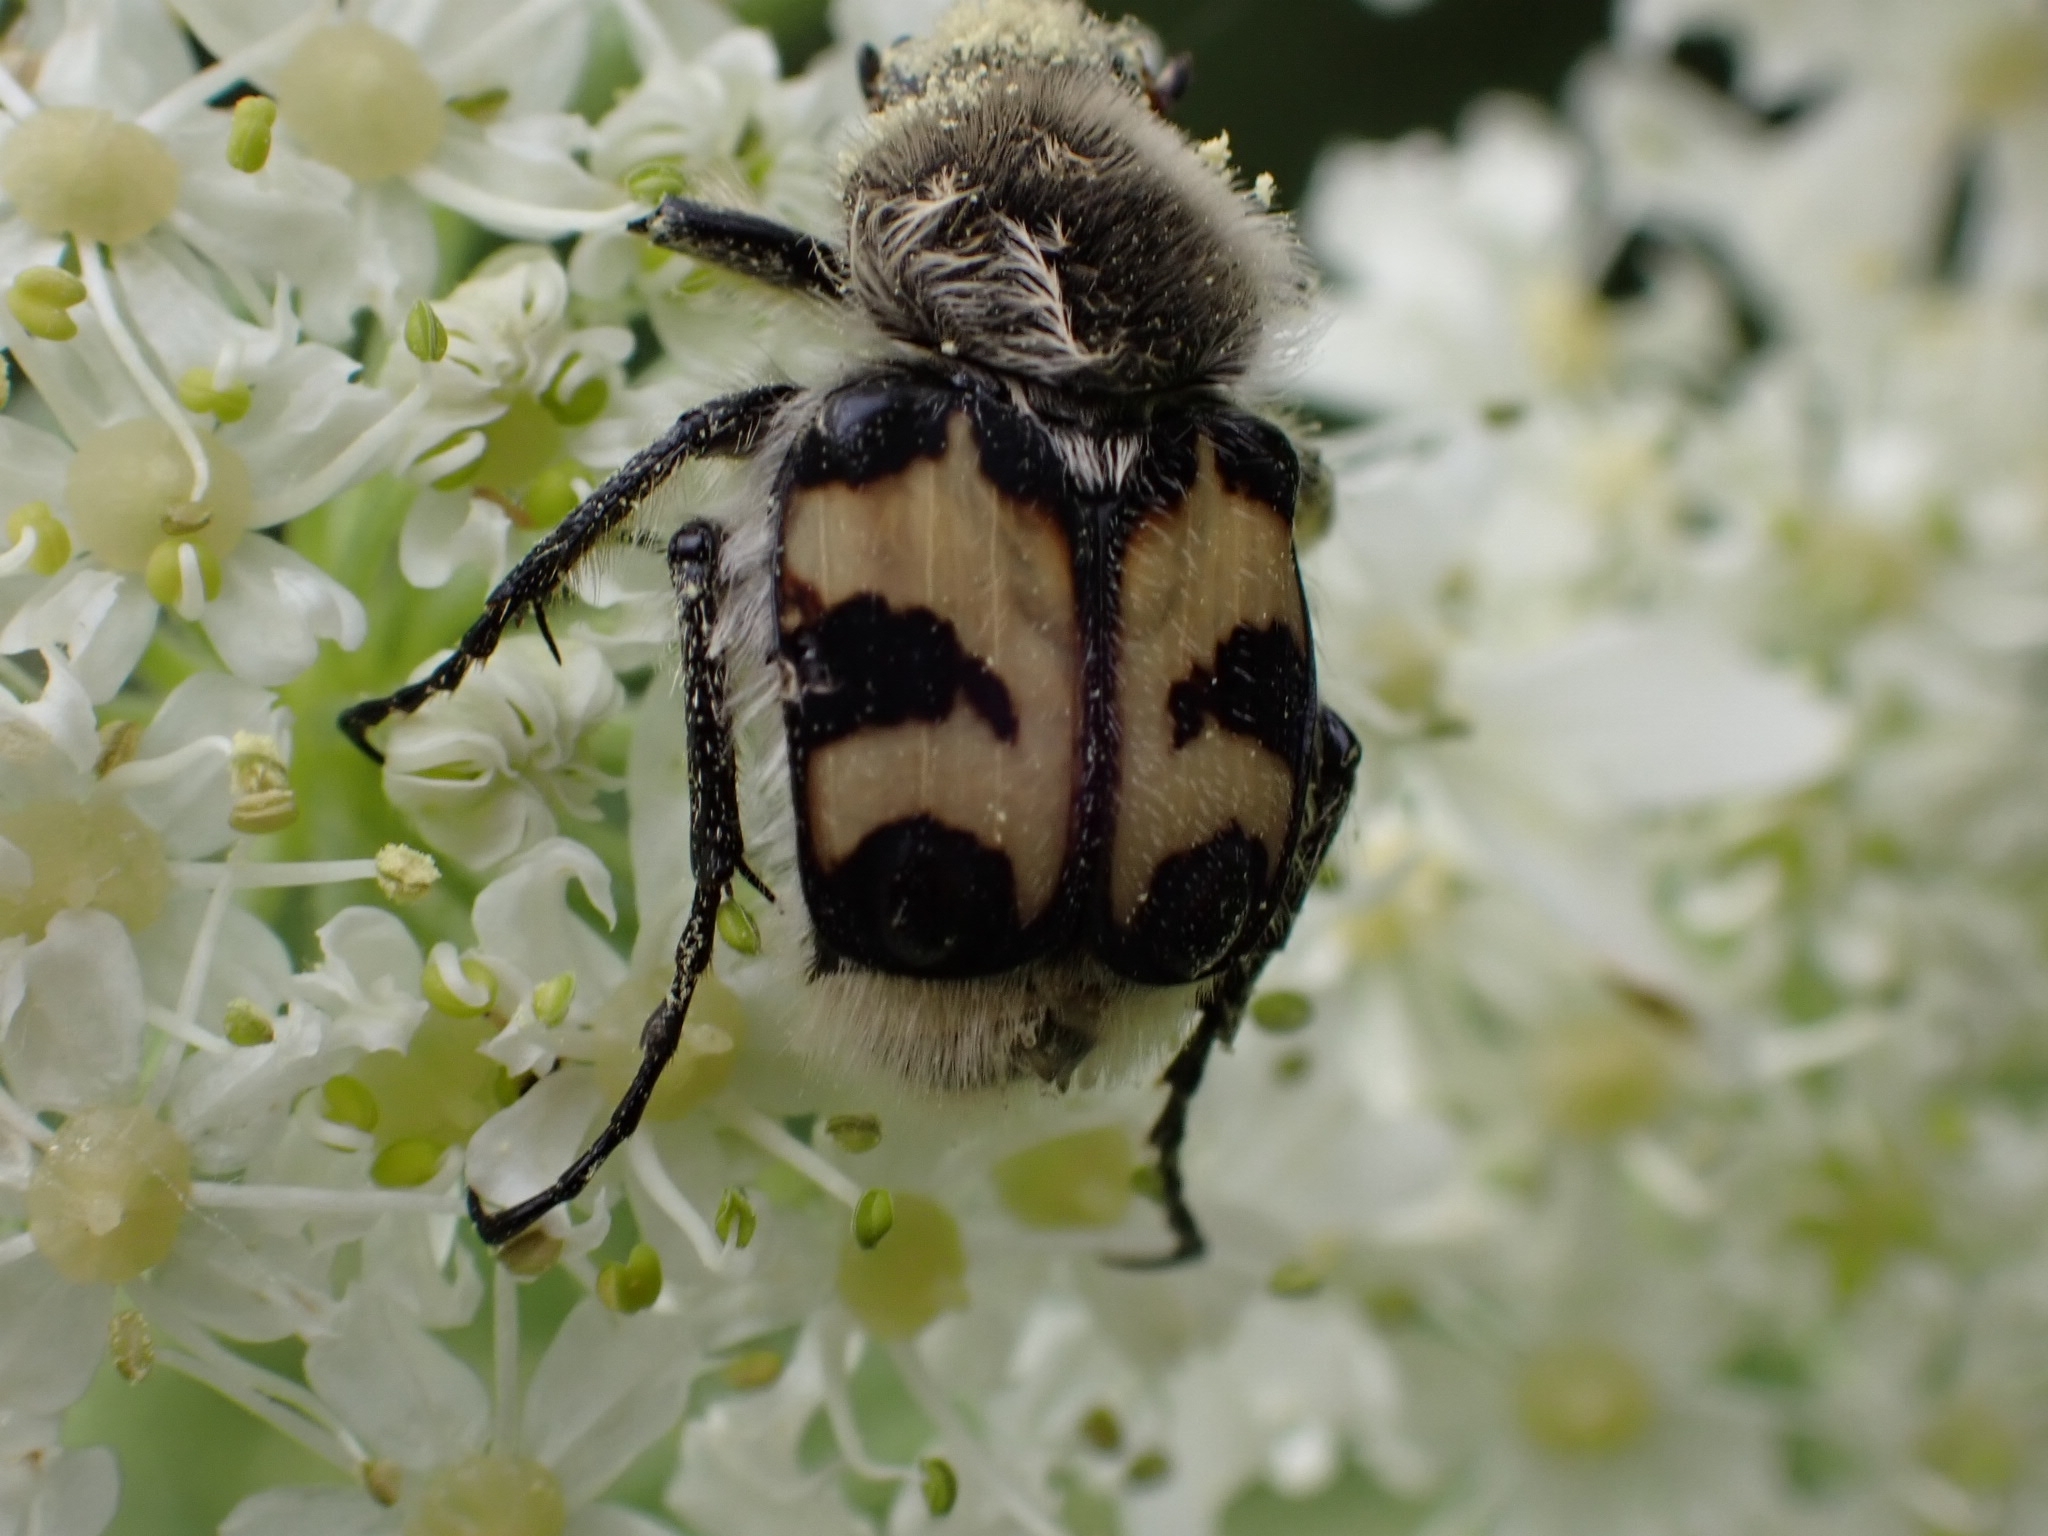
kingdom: Animalia
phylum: Arthropoda
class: Insecta
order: Coleoptera
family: Scarabaeidae
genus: Trichius
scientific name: Trichius fasciatus
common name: Bee beetle
